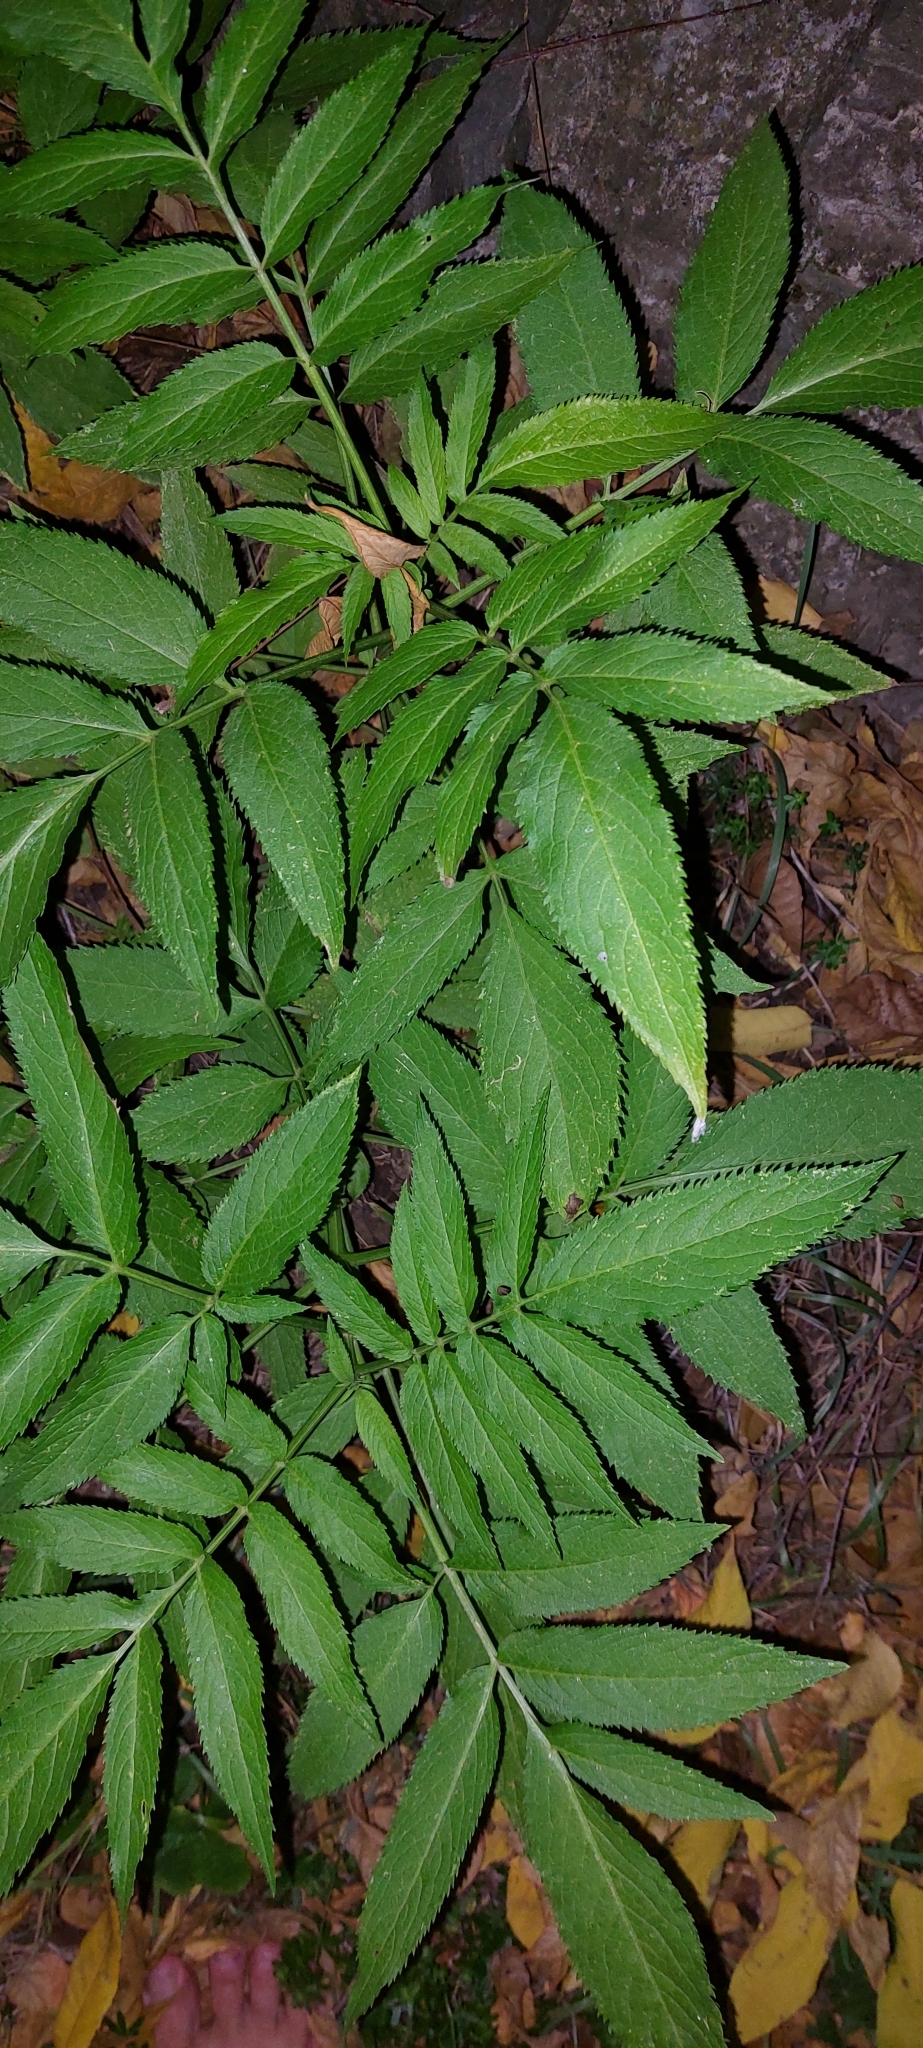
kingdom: Plantae
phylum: Tracheophyta
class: Magnoliopsida
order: Dipsacales
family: Viburnaceae
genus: Sambucus
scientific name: Sambucus ebulus
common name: Dwarf elder
